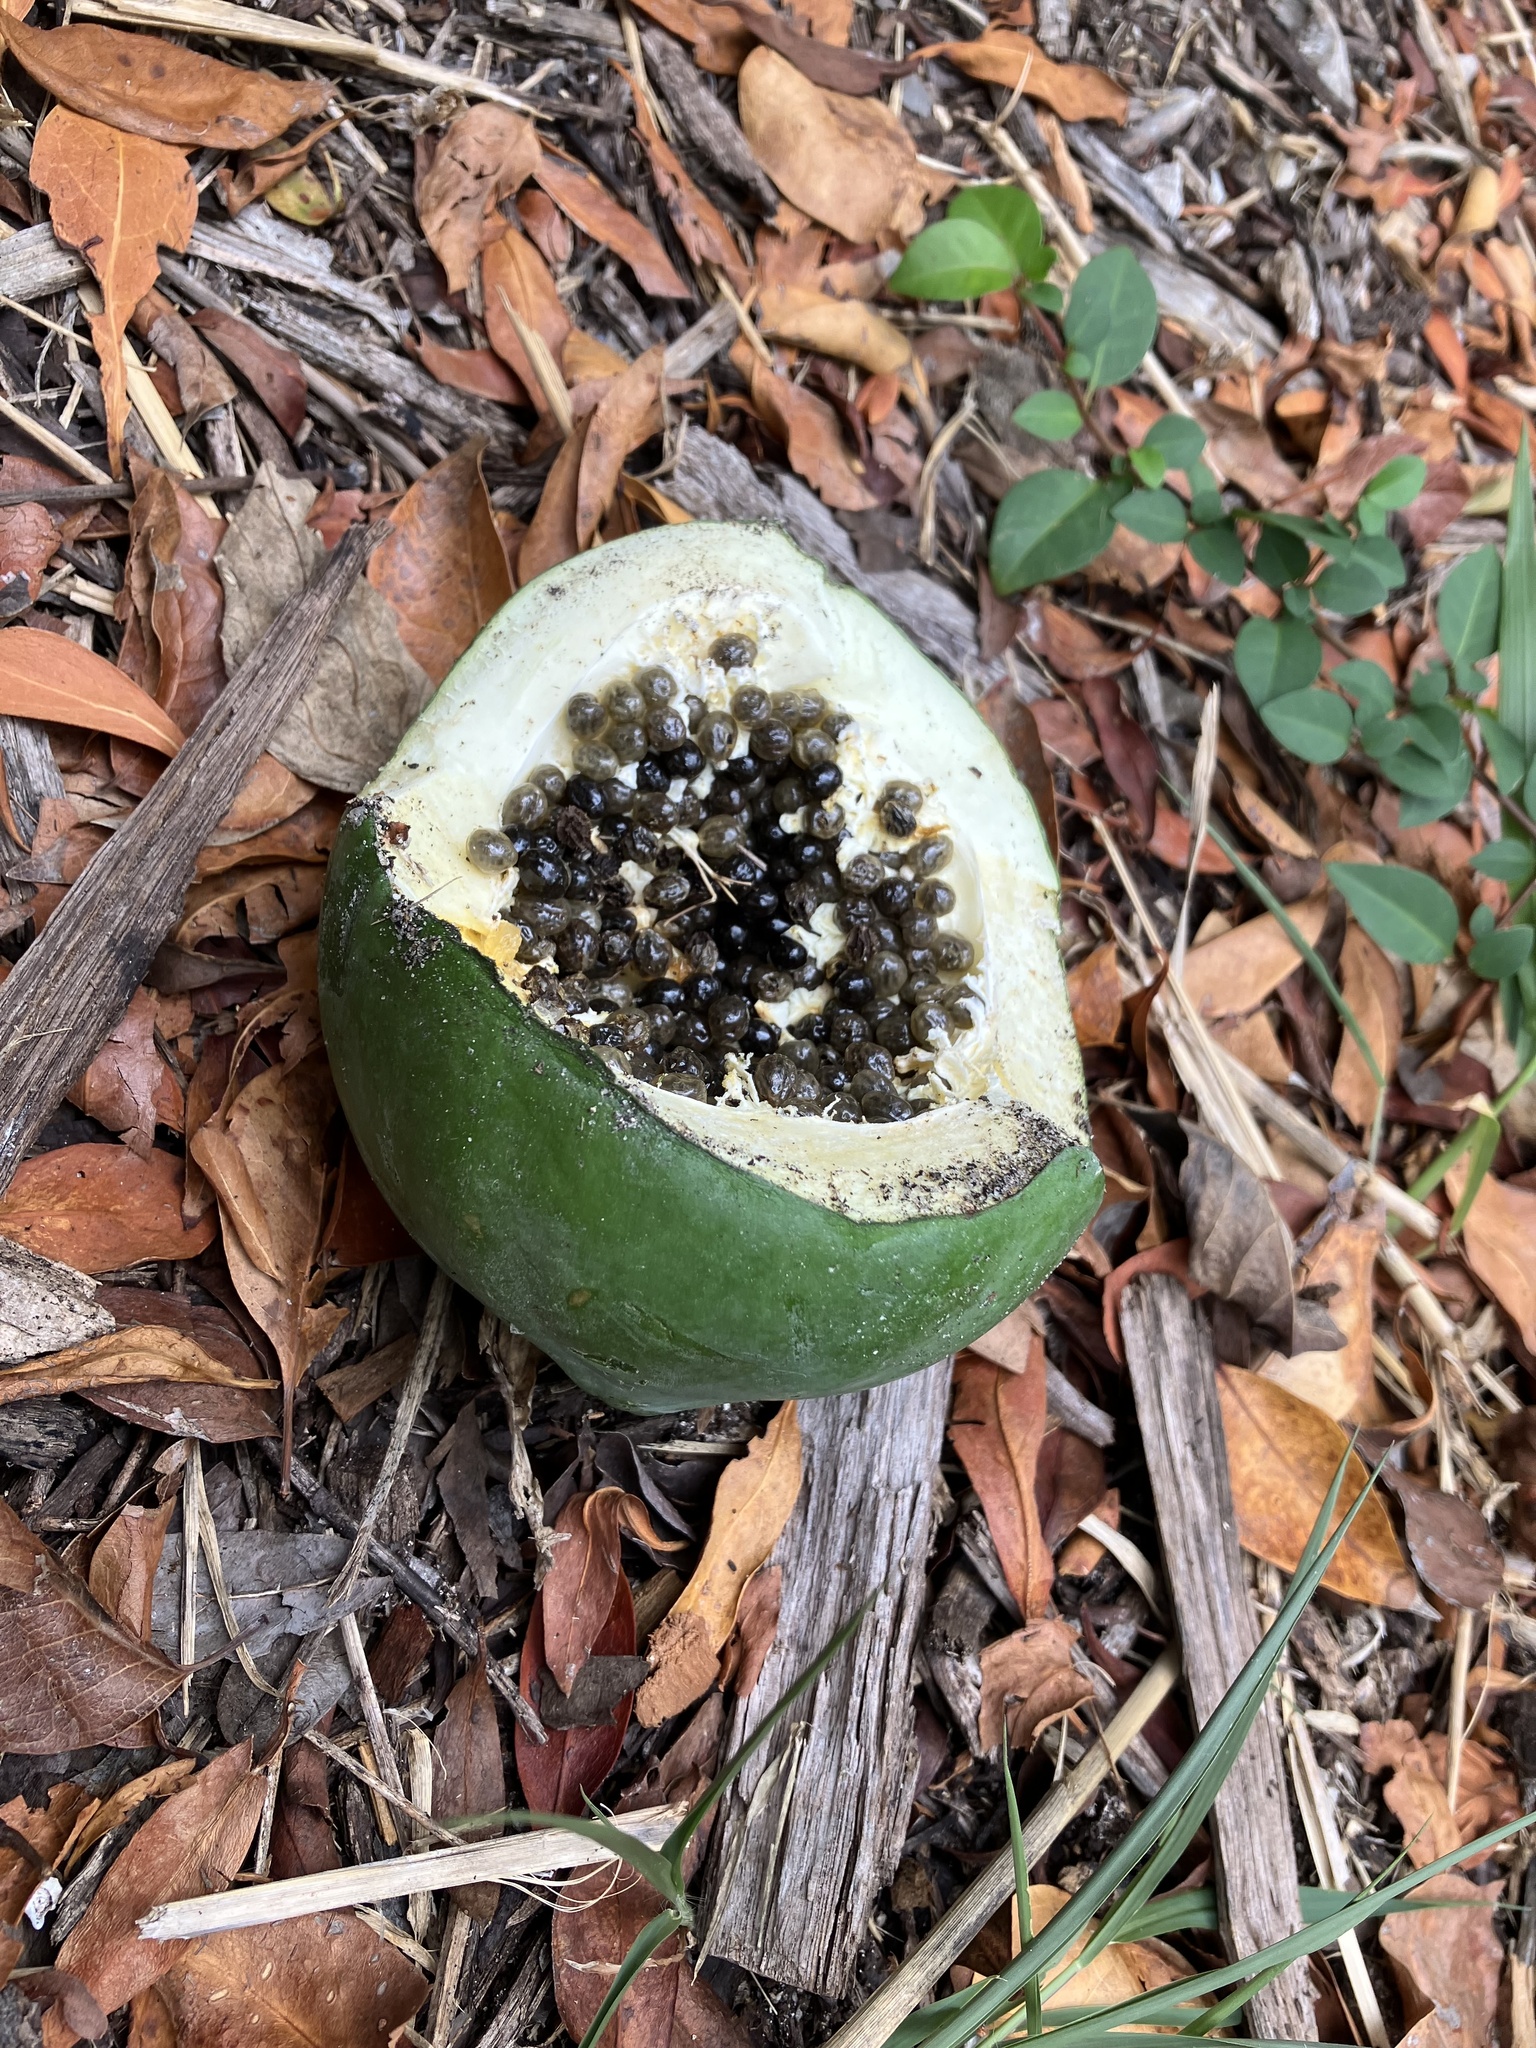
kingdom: Plantae
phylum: Tracheophyta
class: Magnoliopsida
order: Brassicales
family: Caricaceae
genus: Carica
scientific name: Carica papaya
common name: Papaya
